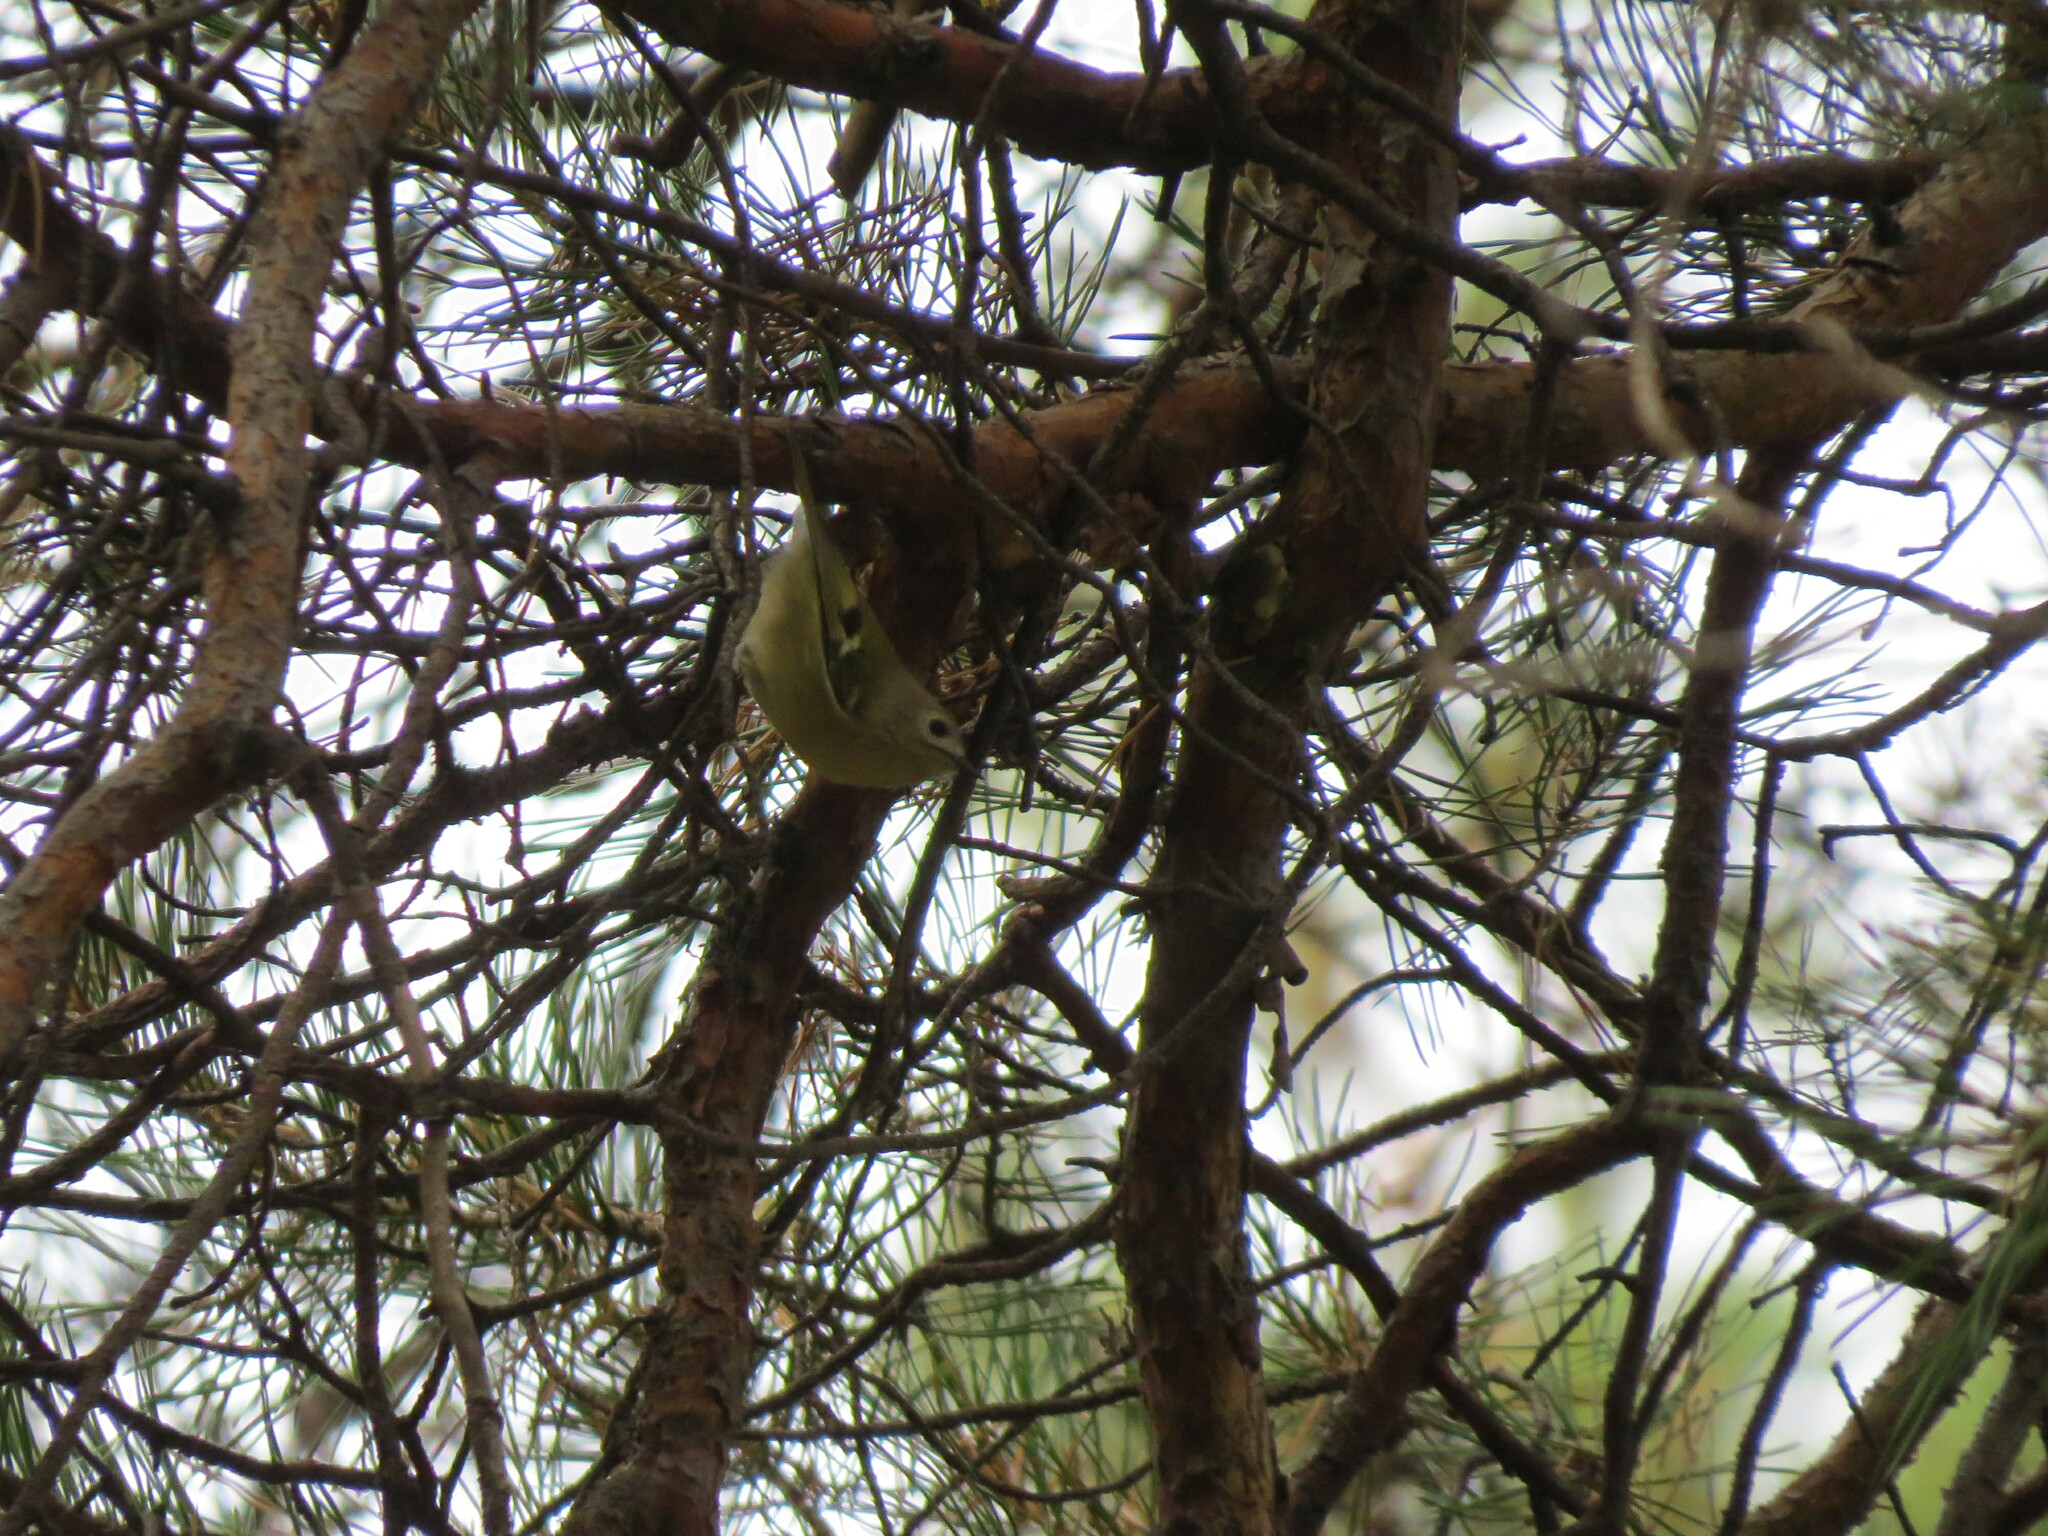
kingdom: Animalia
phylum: Chordata
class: Aves
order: Passeriformes
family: Regulidae
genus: Regulus
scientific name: Regulus regulus
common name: Goldcrest
